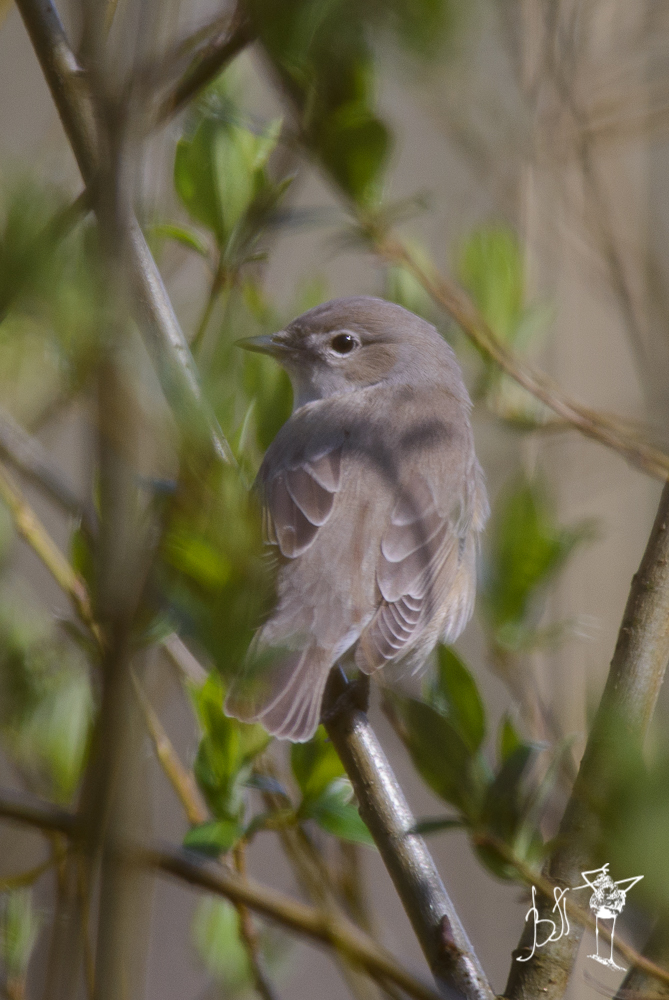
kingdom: Animalia
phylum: Chordata
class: Aves
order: Passeriformes
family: Sylviidae
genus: Sylvia
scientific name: Sylvia borin
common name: Garden warbler
